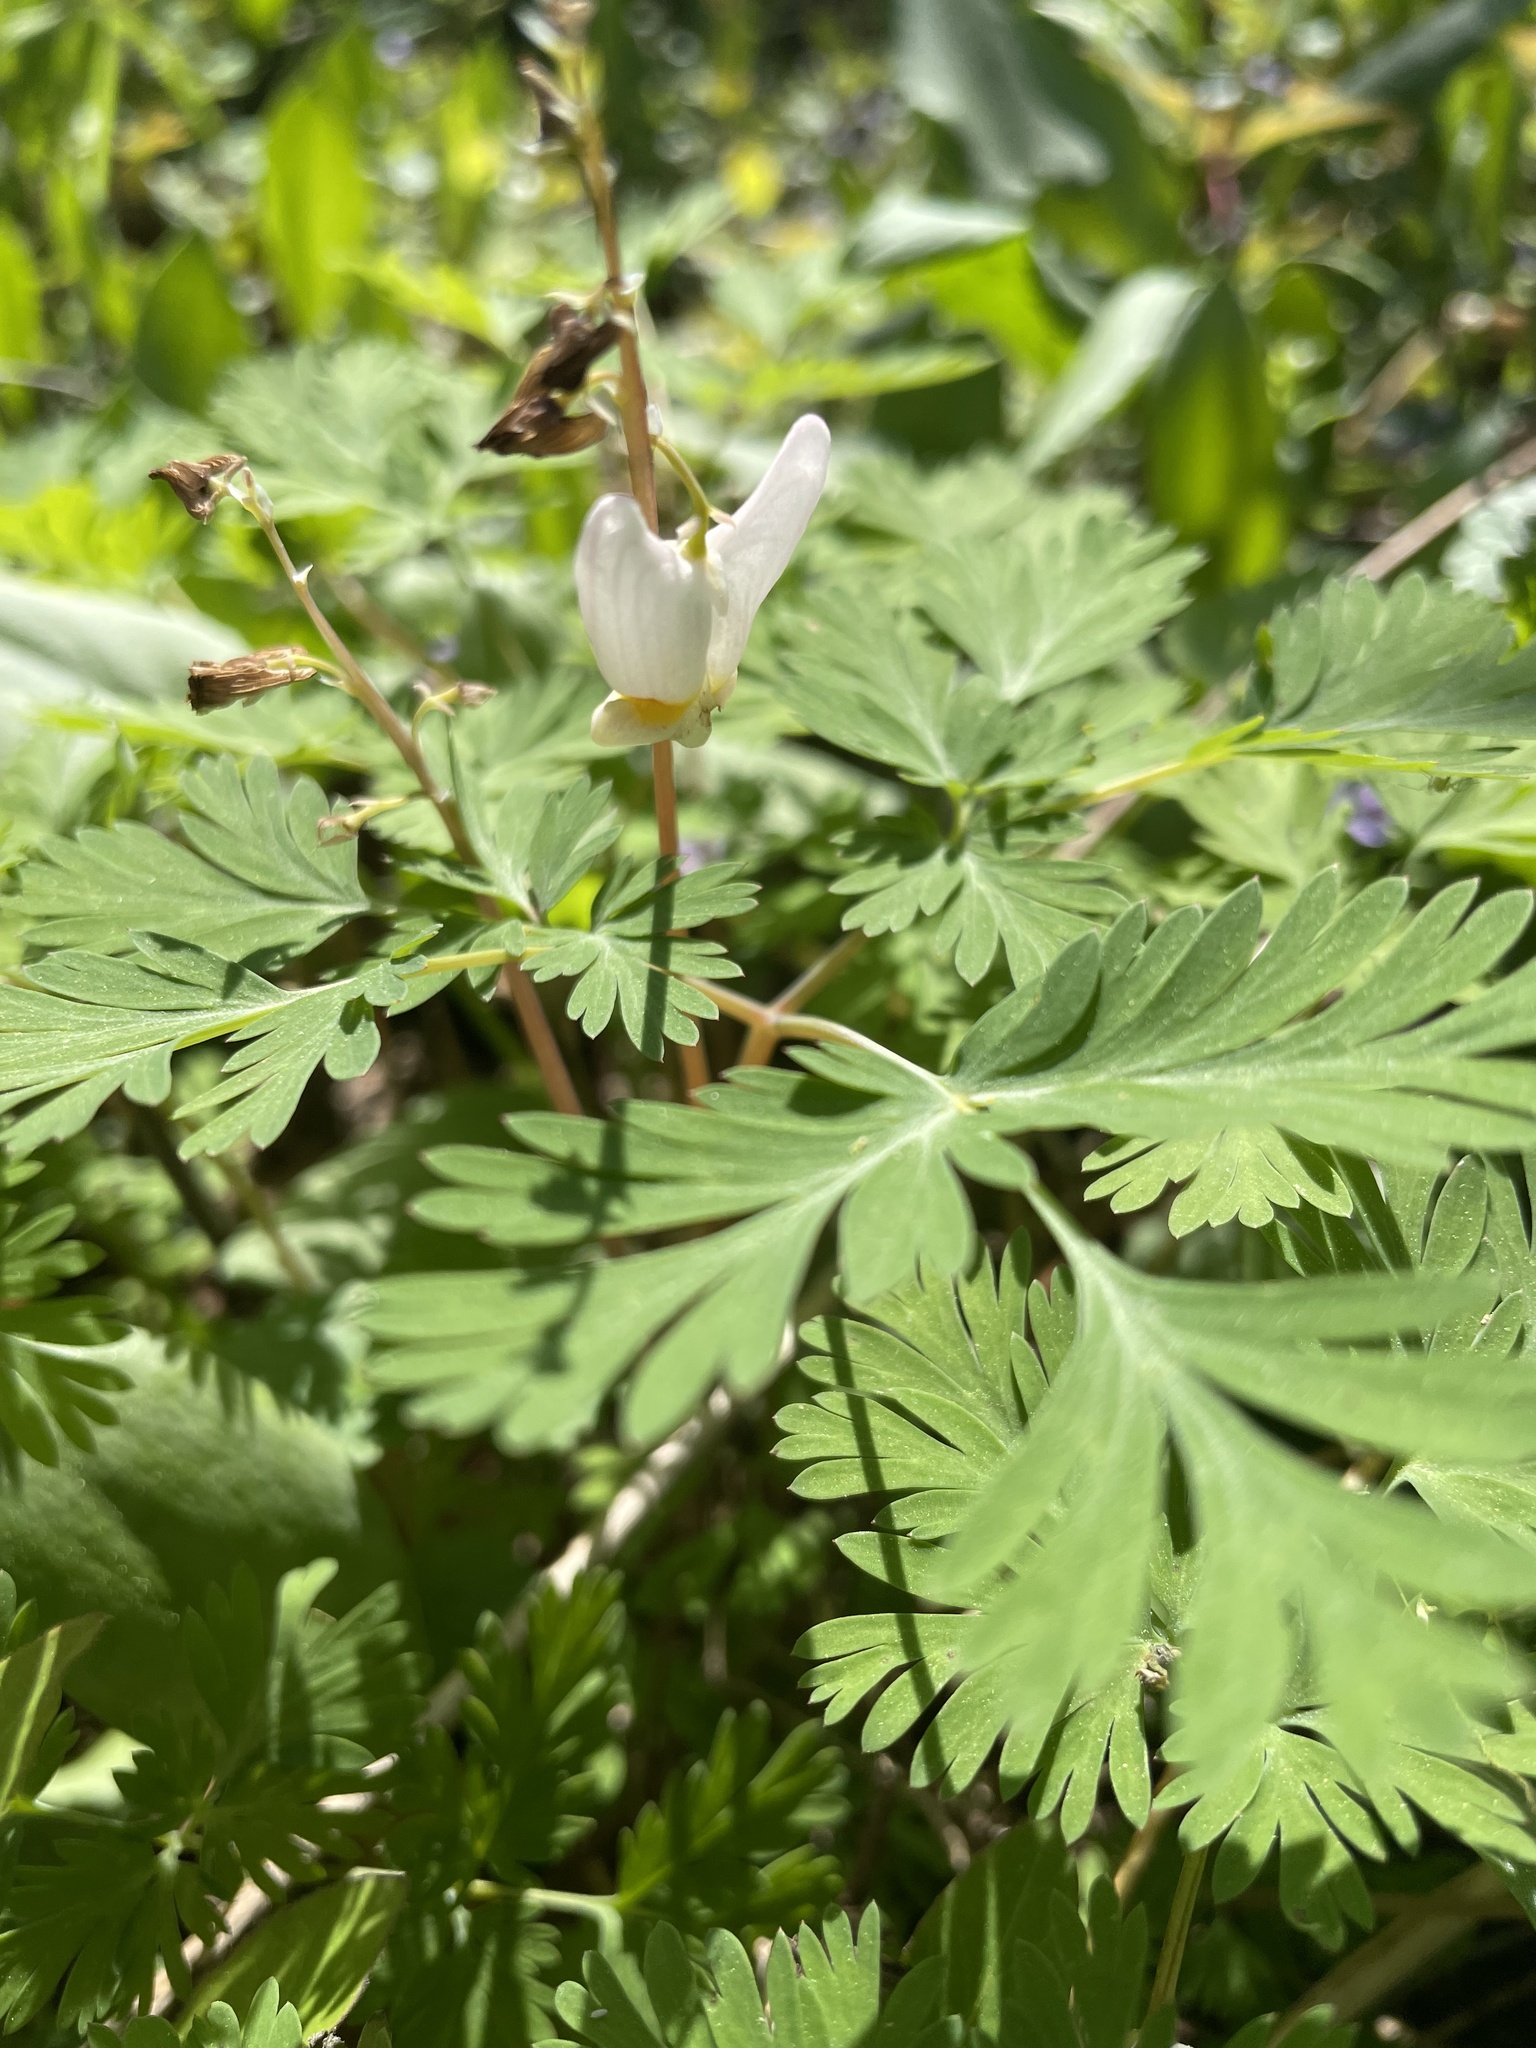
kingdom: Plantae
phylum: Tracheophyta
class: Magnoliopsida
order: Ranunculales
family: Papaveraceae
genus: Dicentra
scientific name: Dicentra cucullaria
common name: Dutchman's breeches
